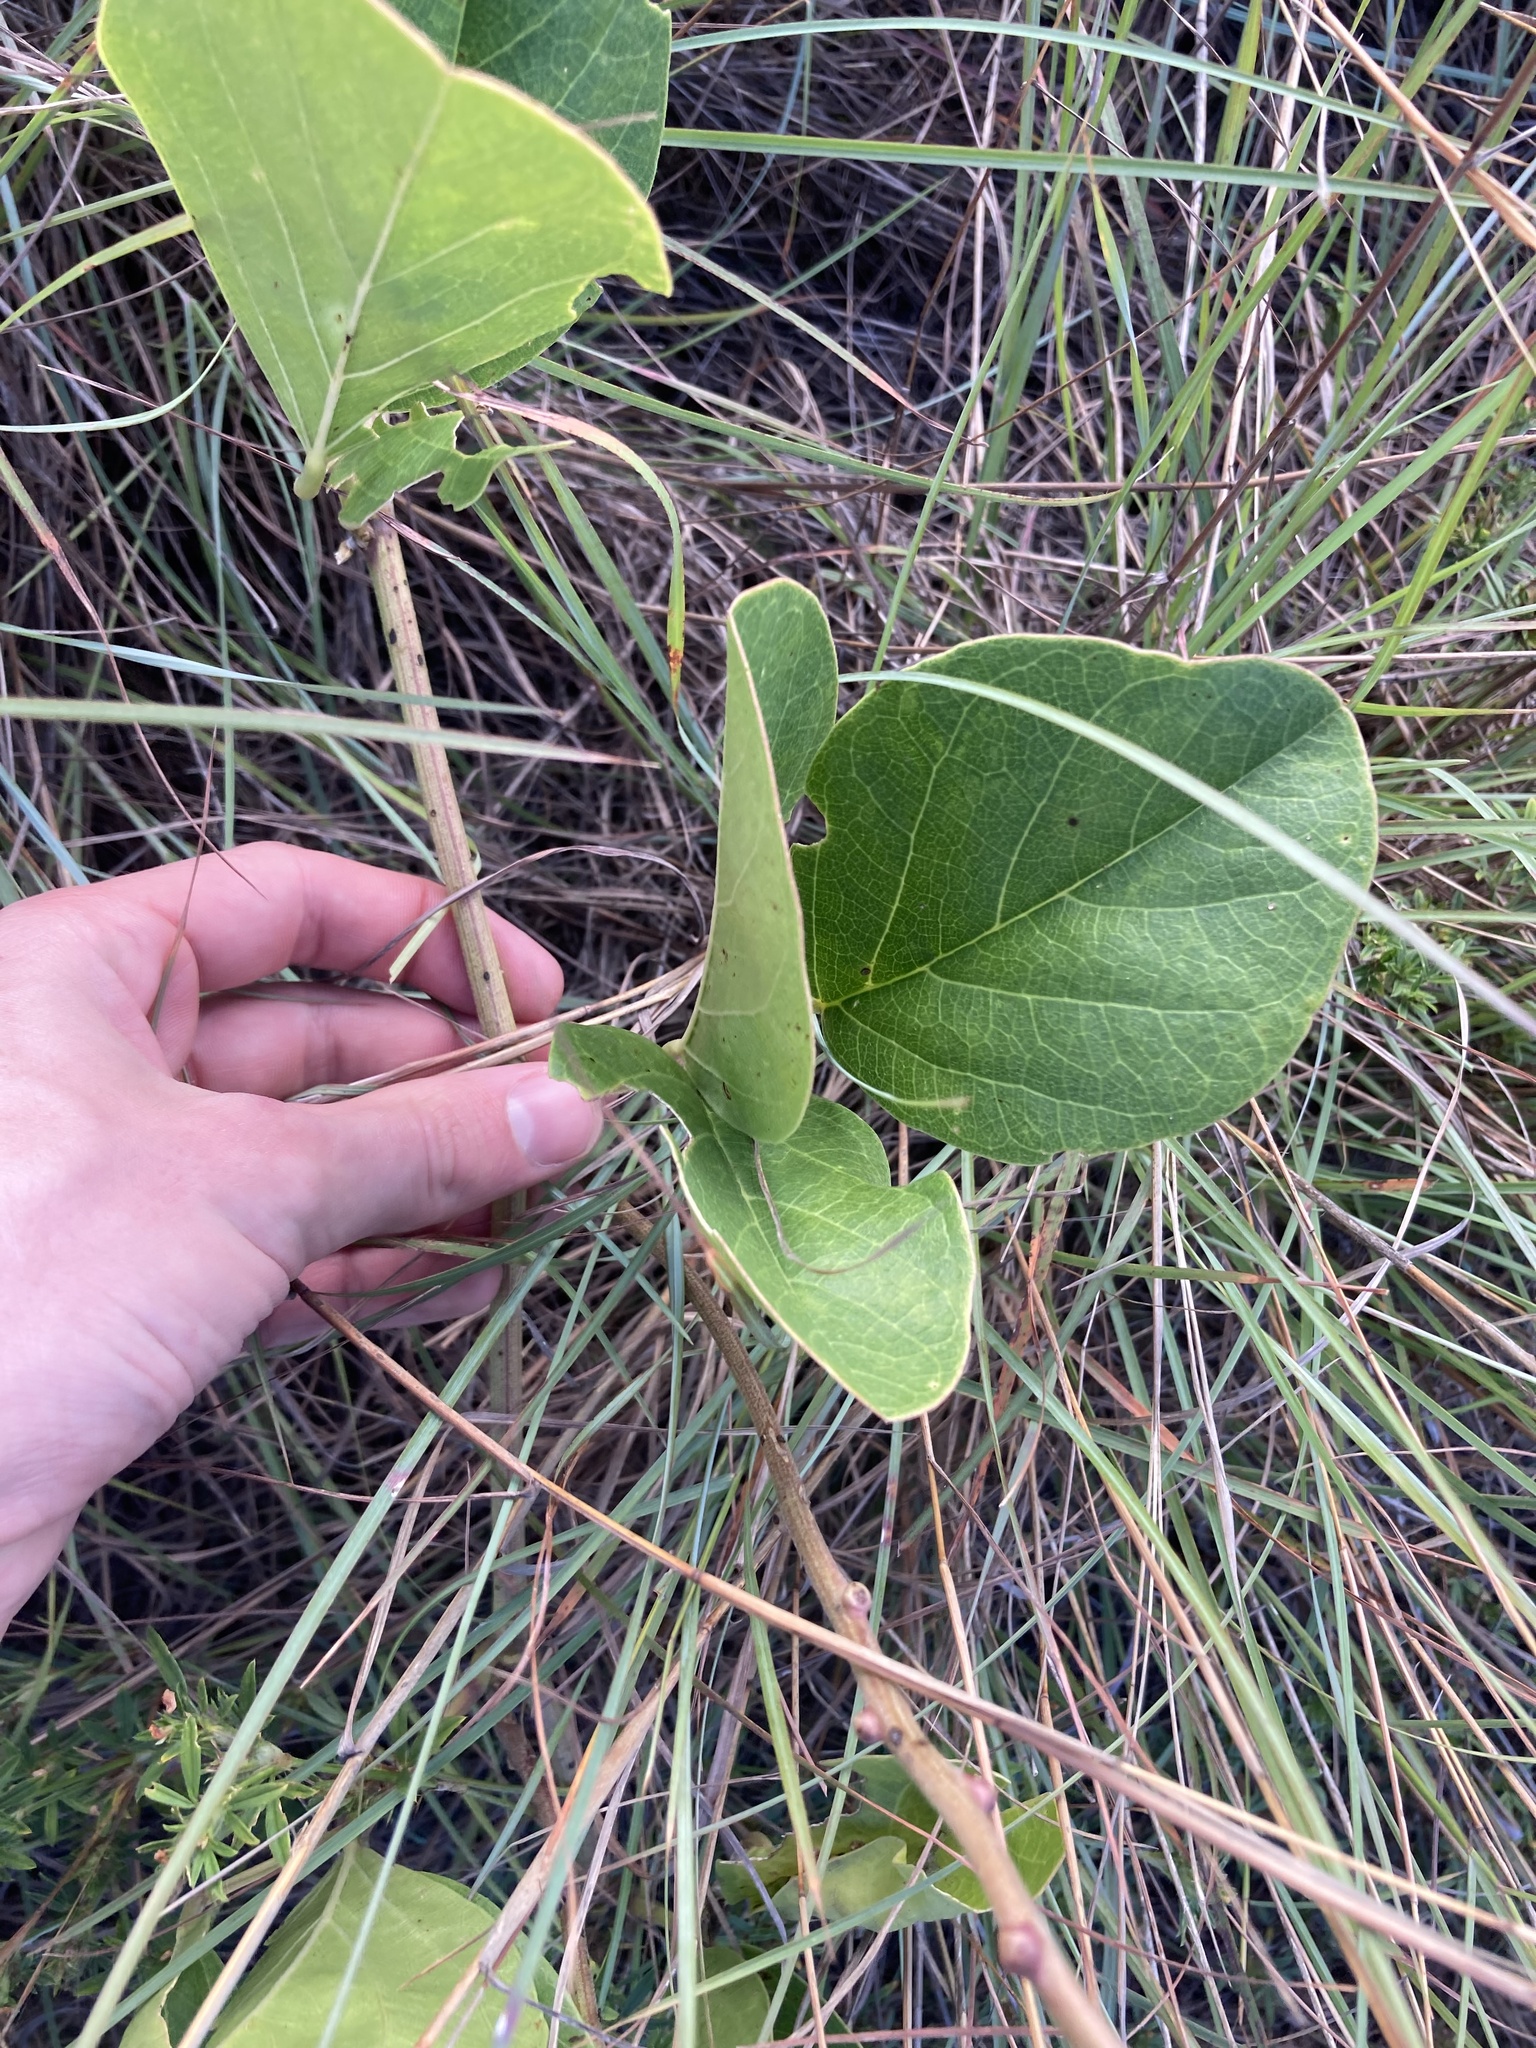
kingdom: Plantae
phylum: Tracheophyta
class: Magnoliopsida
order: Fabales
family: Fabaceae
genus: Canavalia
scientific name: Canavalia rosea
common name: Beach-bean
